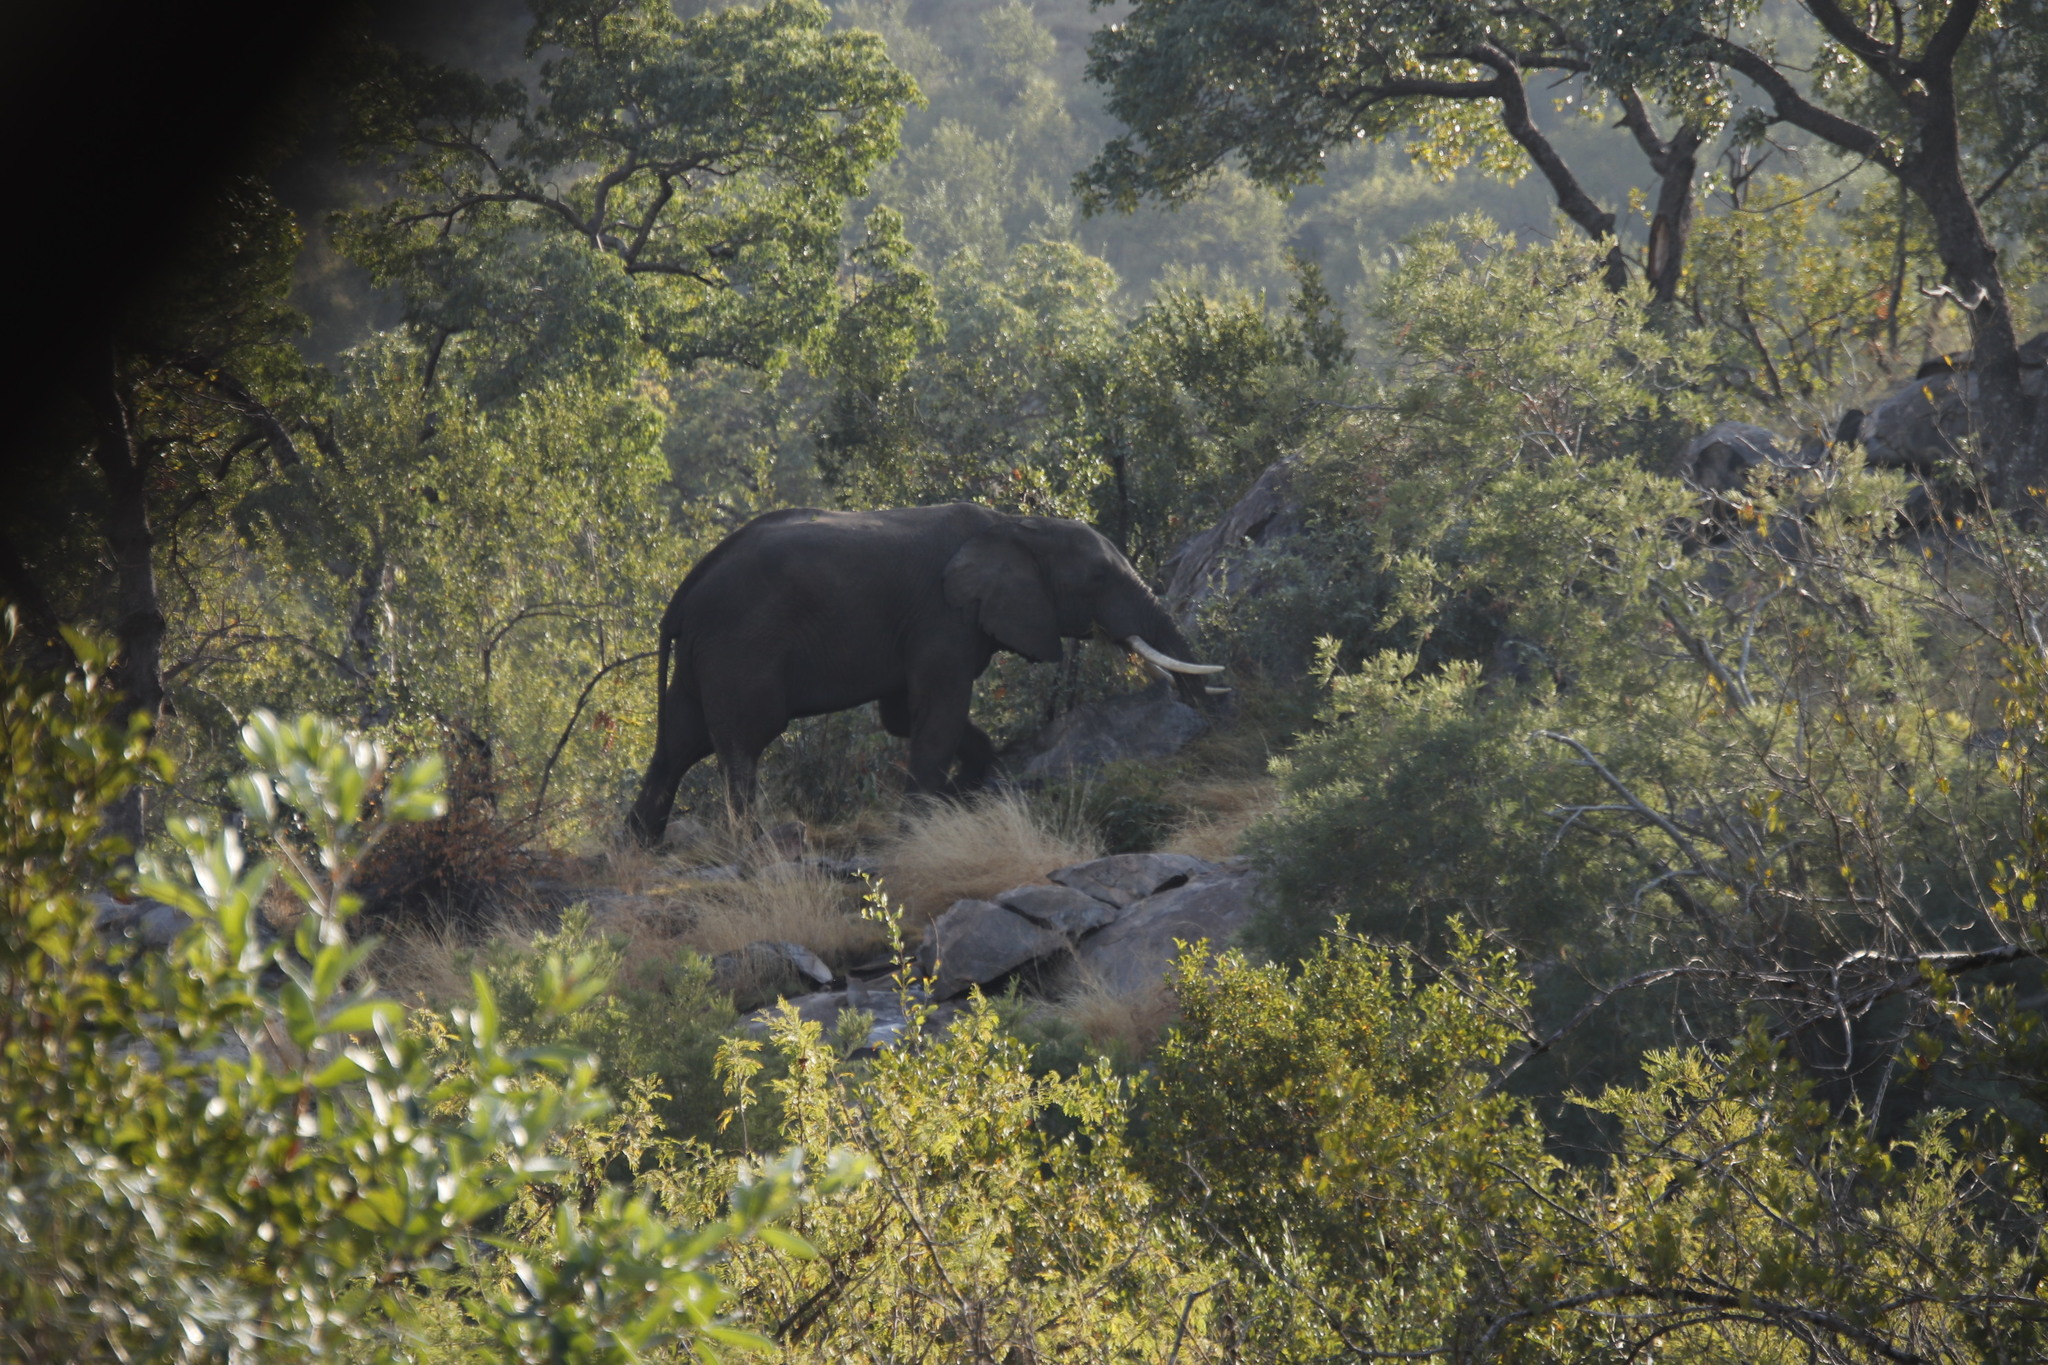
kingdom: Animalia
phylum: Chordata
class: Mammalia
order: Proboscidea
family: Elephantidae
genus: Loxodonta
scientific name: Loxodonta africana
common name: African elephant
